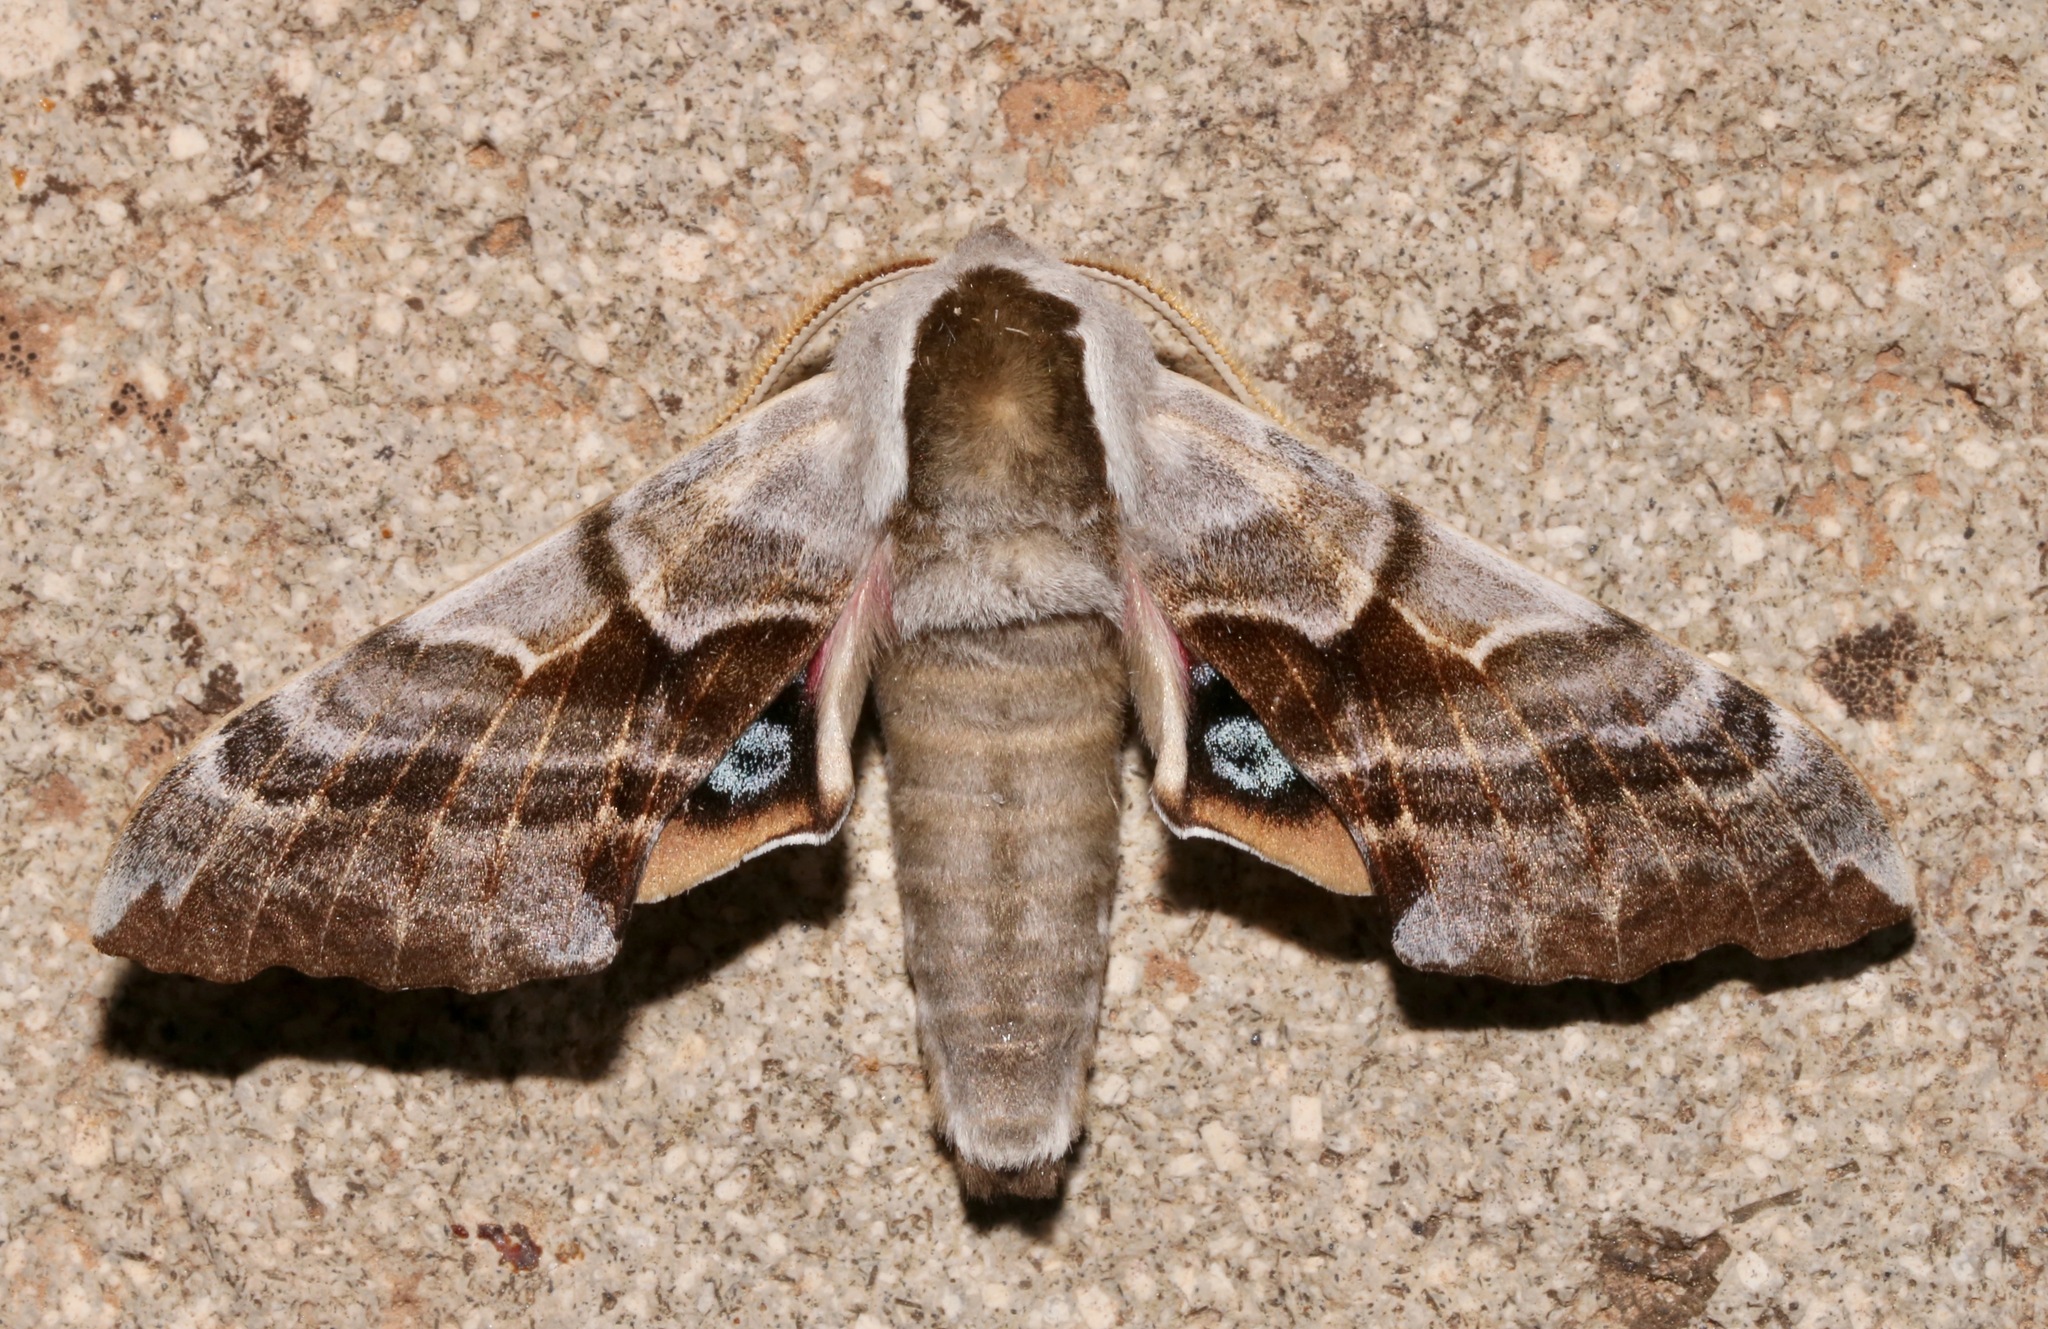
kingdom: Animalia
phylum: Arthropoda
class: Insecta
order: Lepidoptera
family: Sphingidae
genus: Smerinthus
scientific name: Smerinthus cerisyi
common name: Cerisy's sphinx moth
